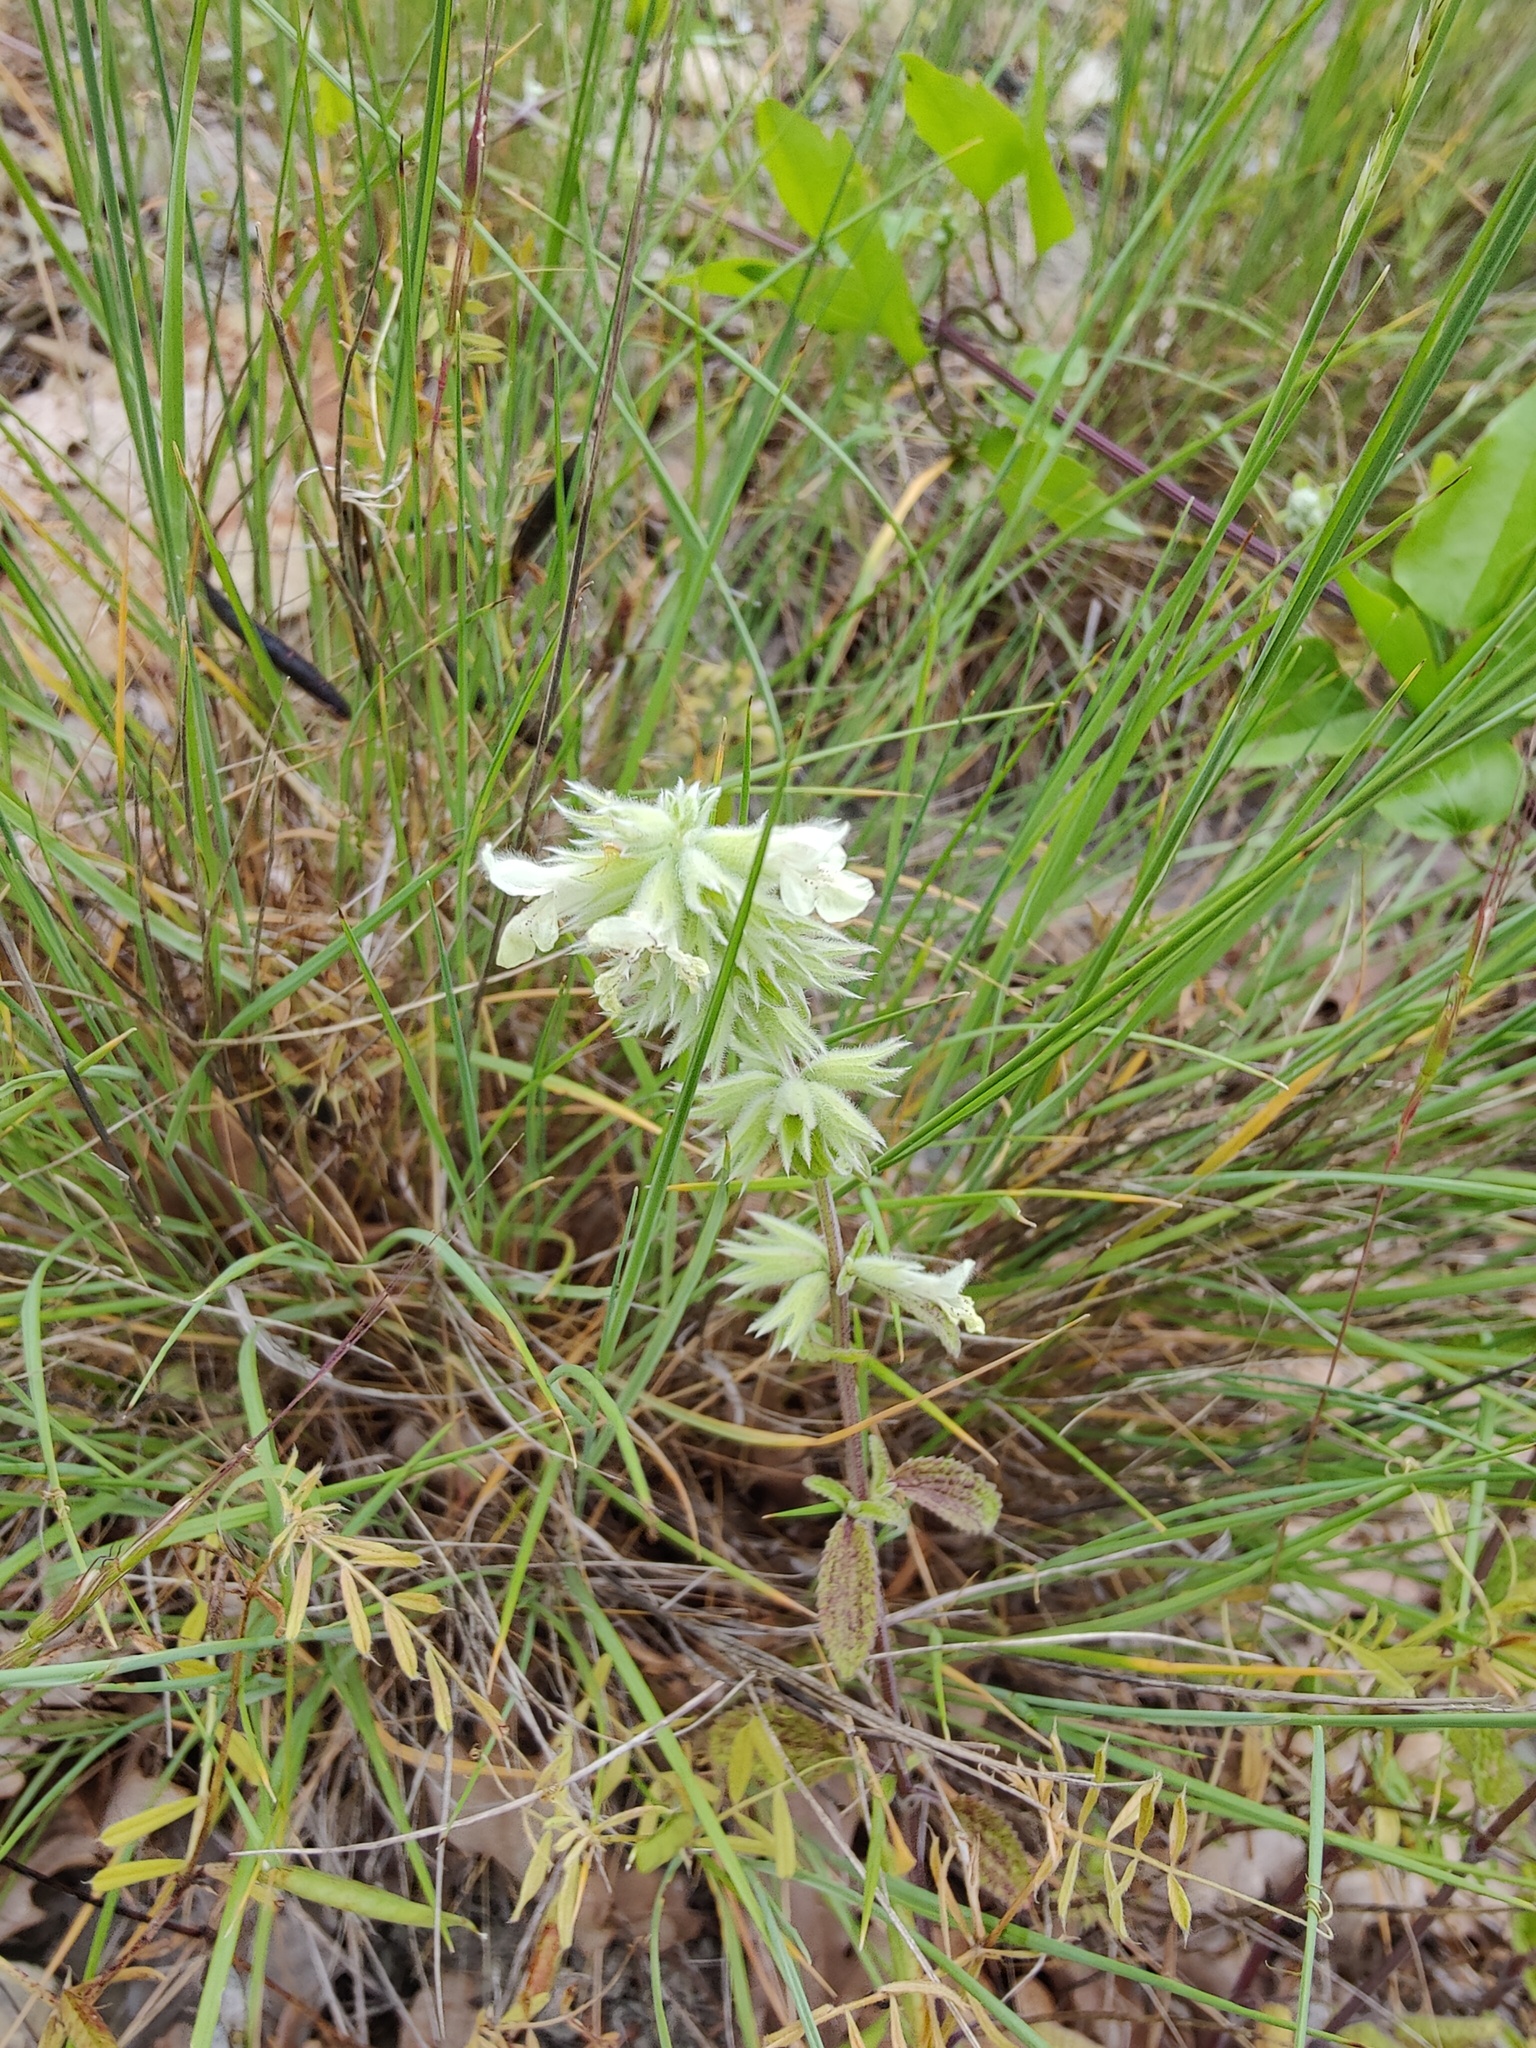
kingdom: Plantae
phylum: Tracheophyta
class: Magnoliopsida
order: Lamiales
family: Lamiaceae
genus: Stachys
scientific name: Stachys annua
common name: Annual yellow-woundwort
